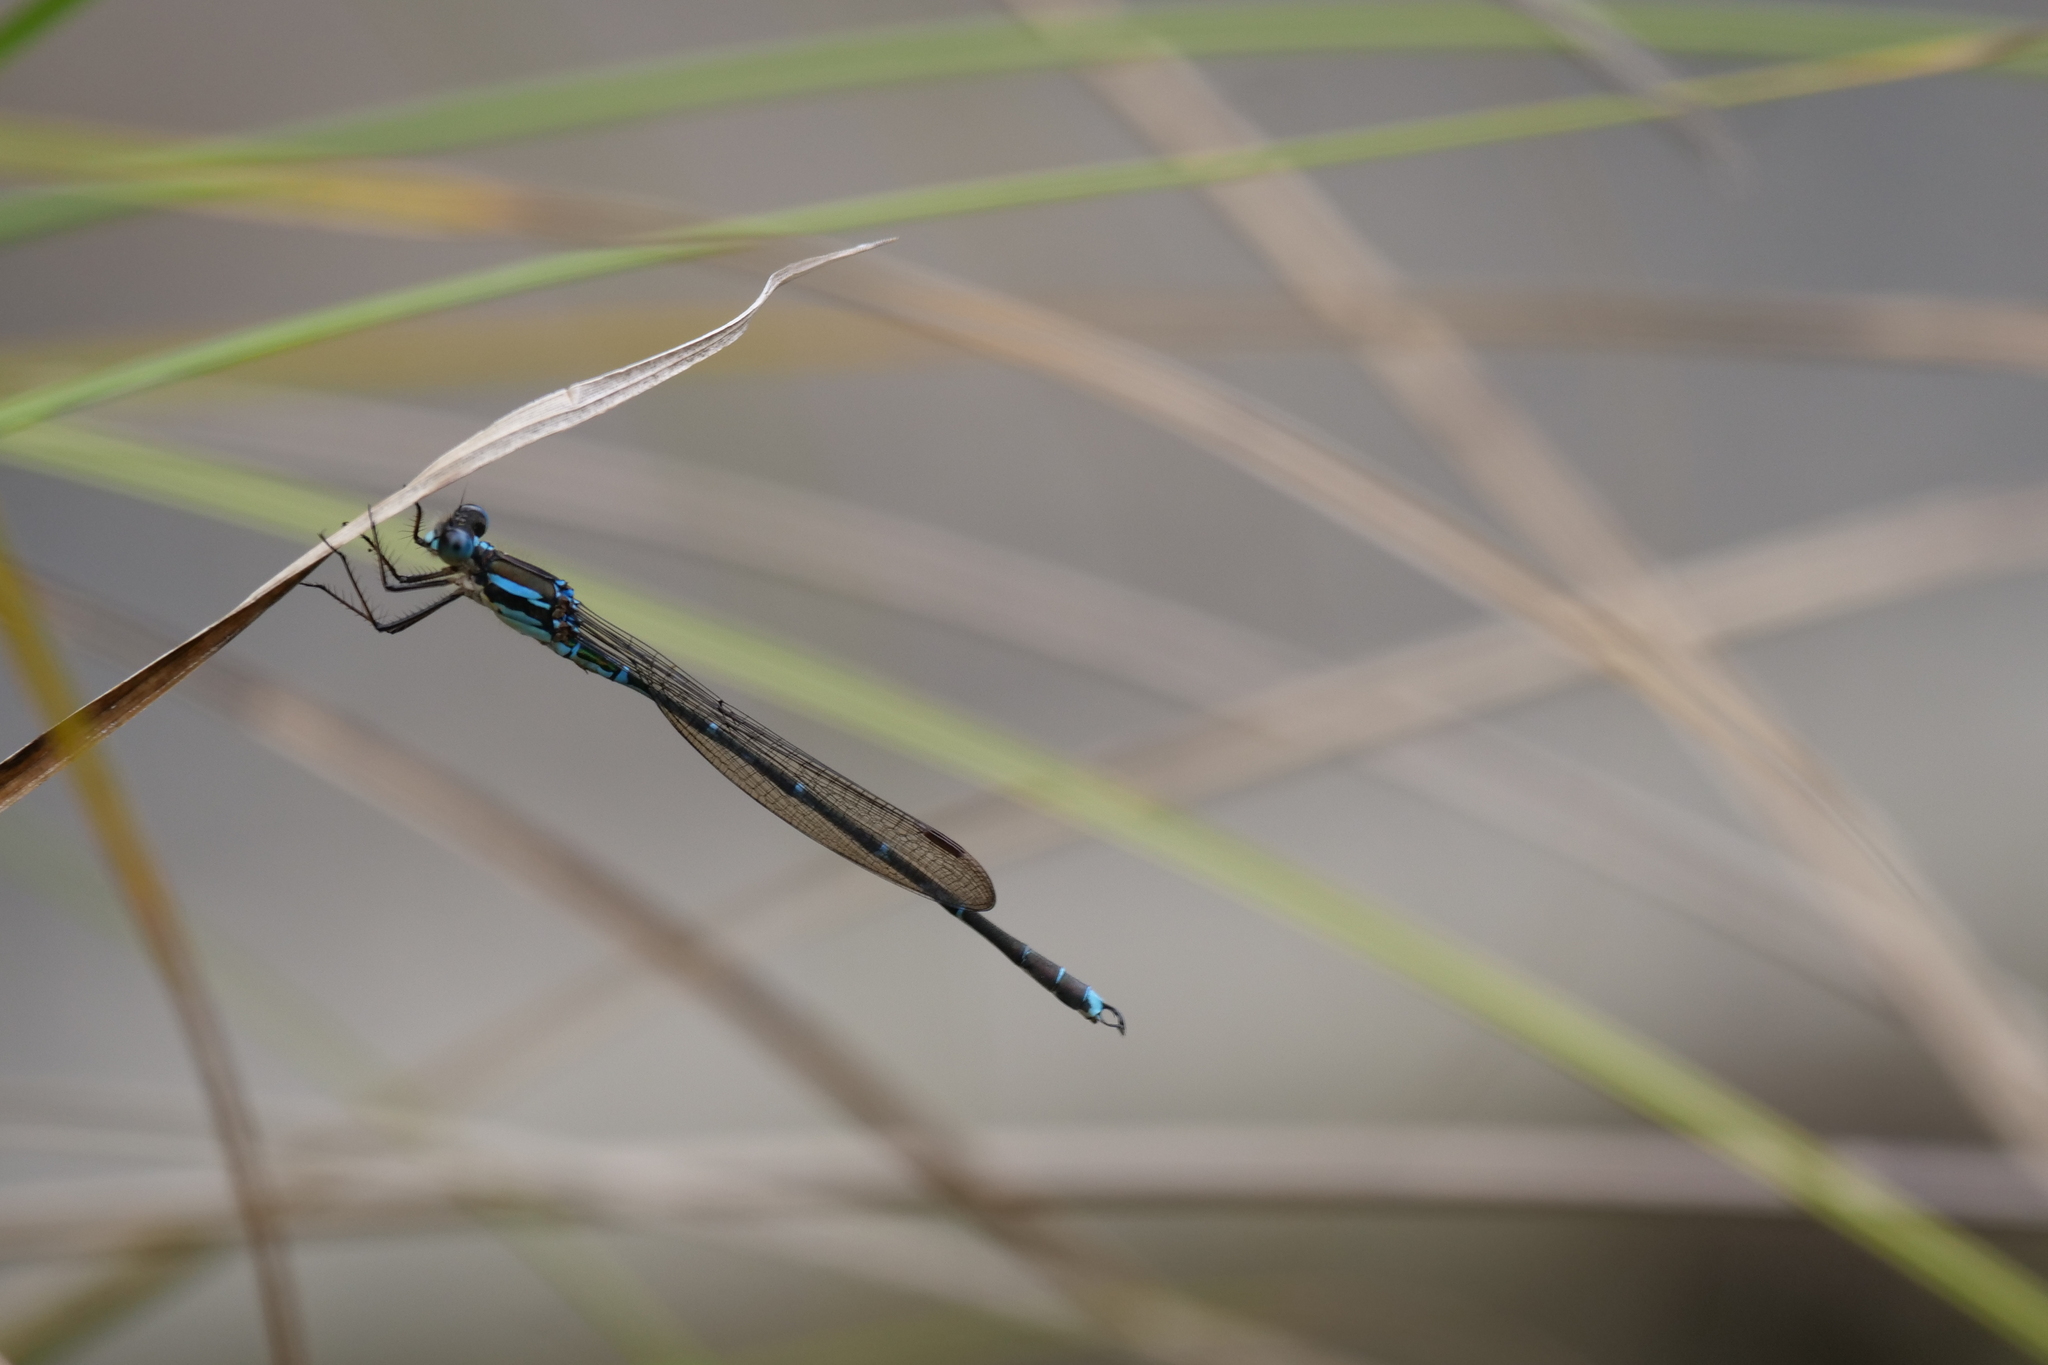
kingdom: Animalia
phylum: Arthropoda
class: Insecta
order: Odonata
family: Lestidae
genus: Austrolestes
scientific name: Austrolestes colensonis
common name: Blue damselfly
